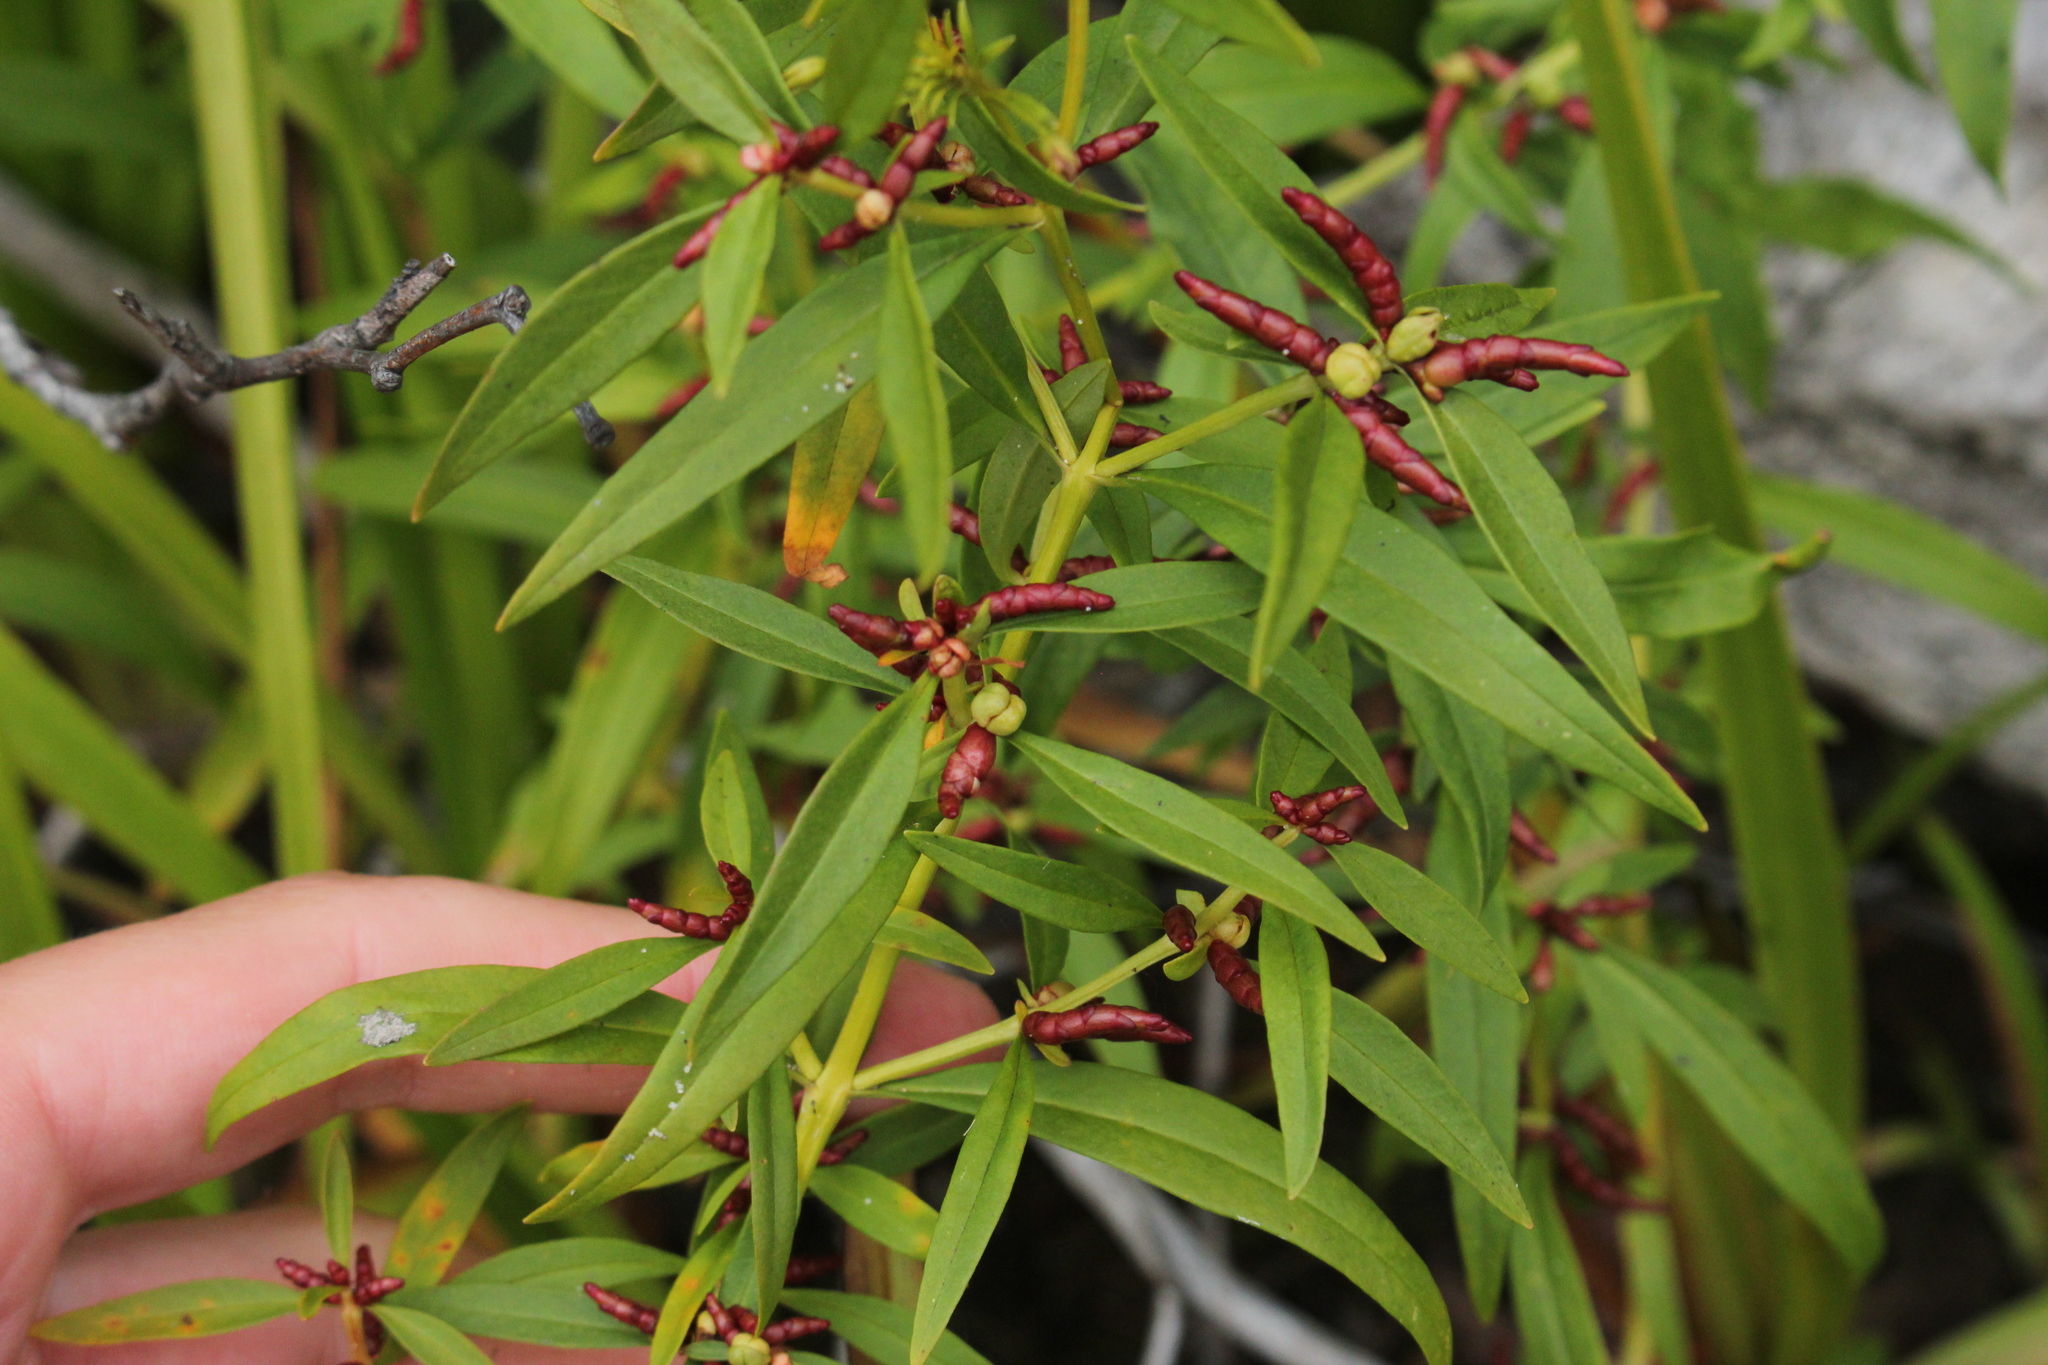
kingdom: Plantae
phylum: Tracheophyta
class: Magnoliopsida
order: Ericales
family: Primulaceae
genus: Lysimachia
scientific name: Lysimachia terrestris
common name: Lake loosestrife
